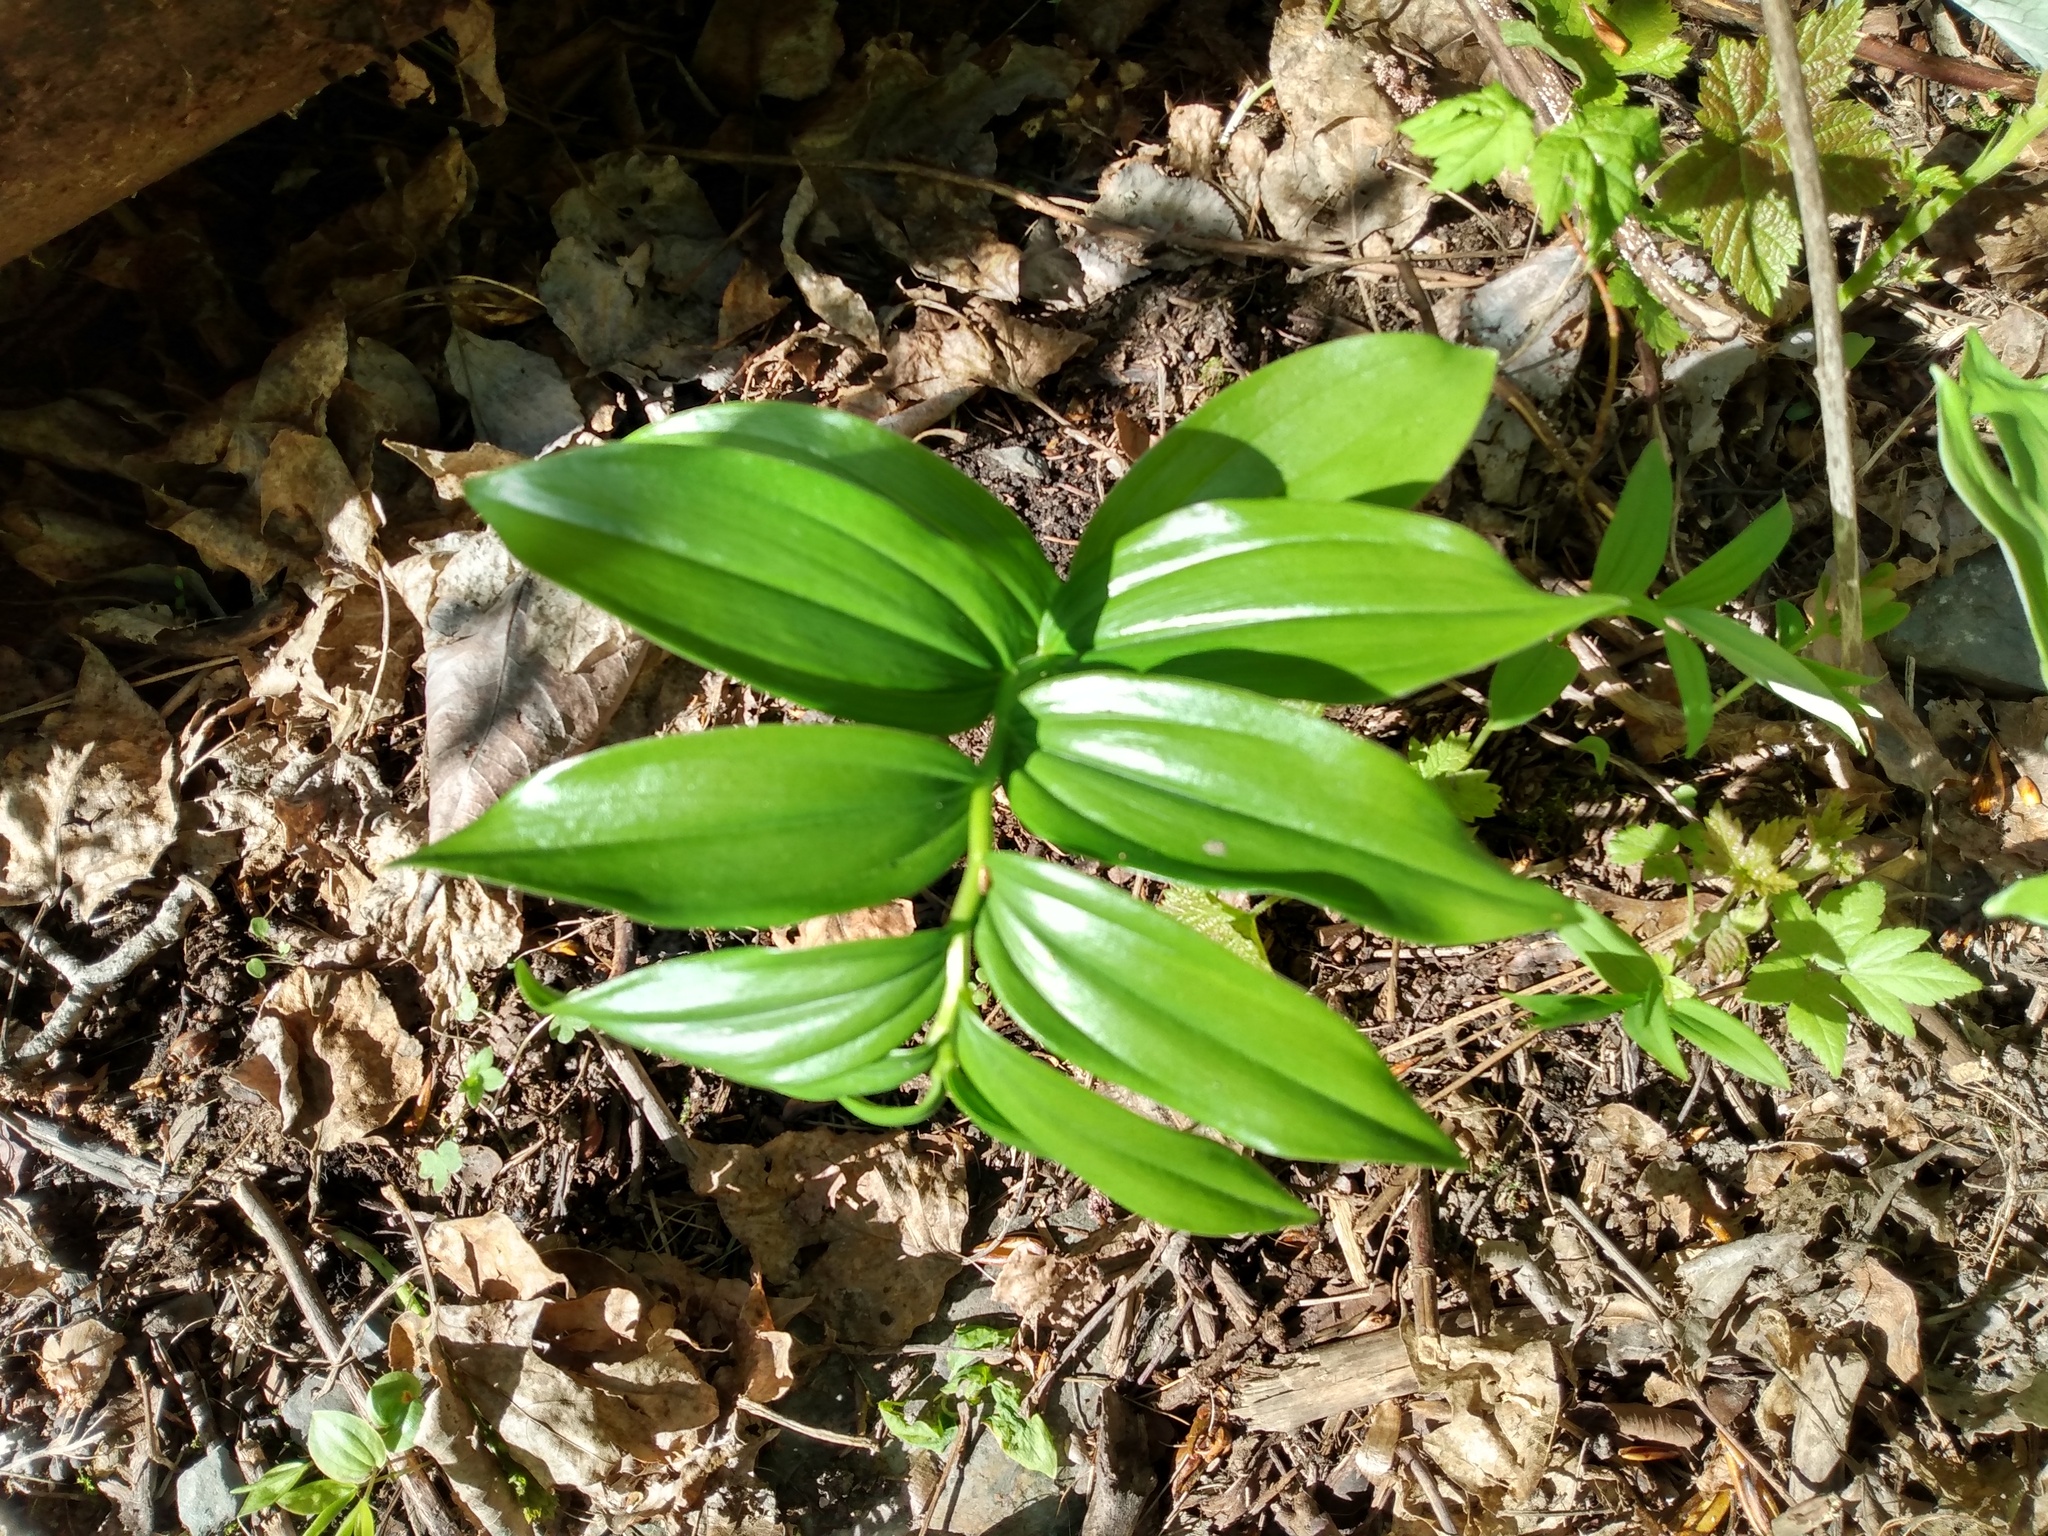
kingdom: Plantae
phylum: Tracheophyta
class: Liliopsida
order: Asparagales
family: Asparagaceae
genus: Maianthemum
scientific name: Maianthemum racemosum
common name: False spikenard
